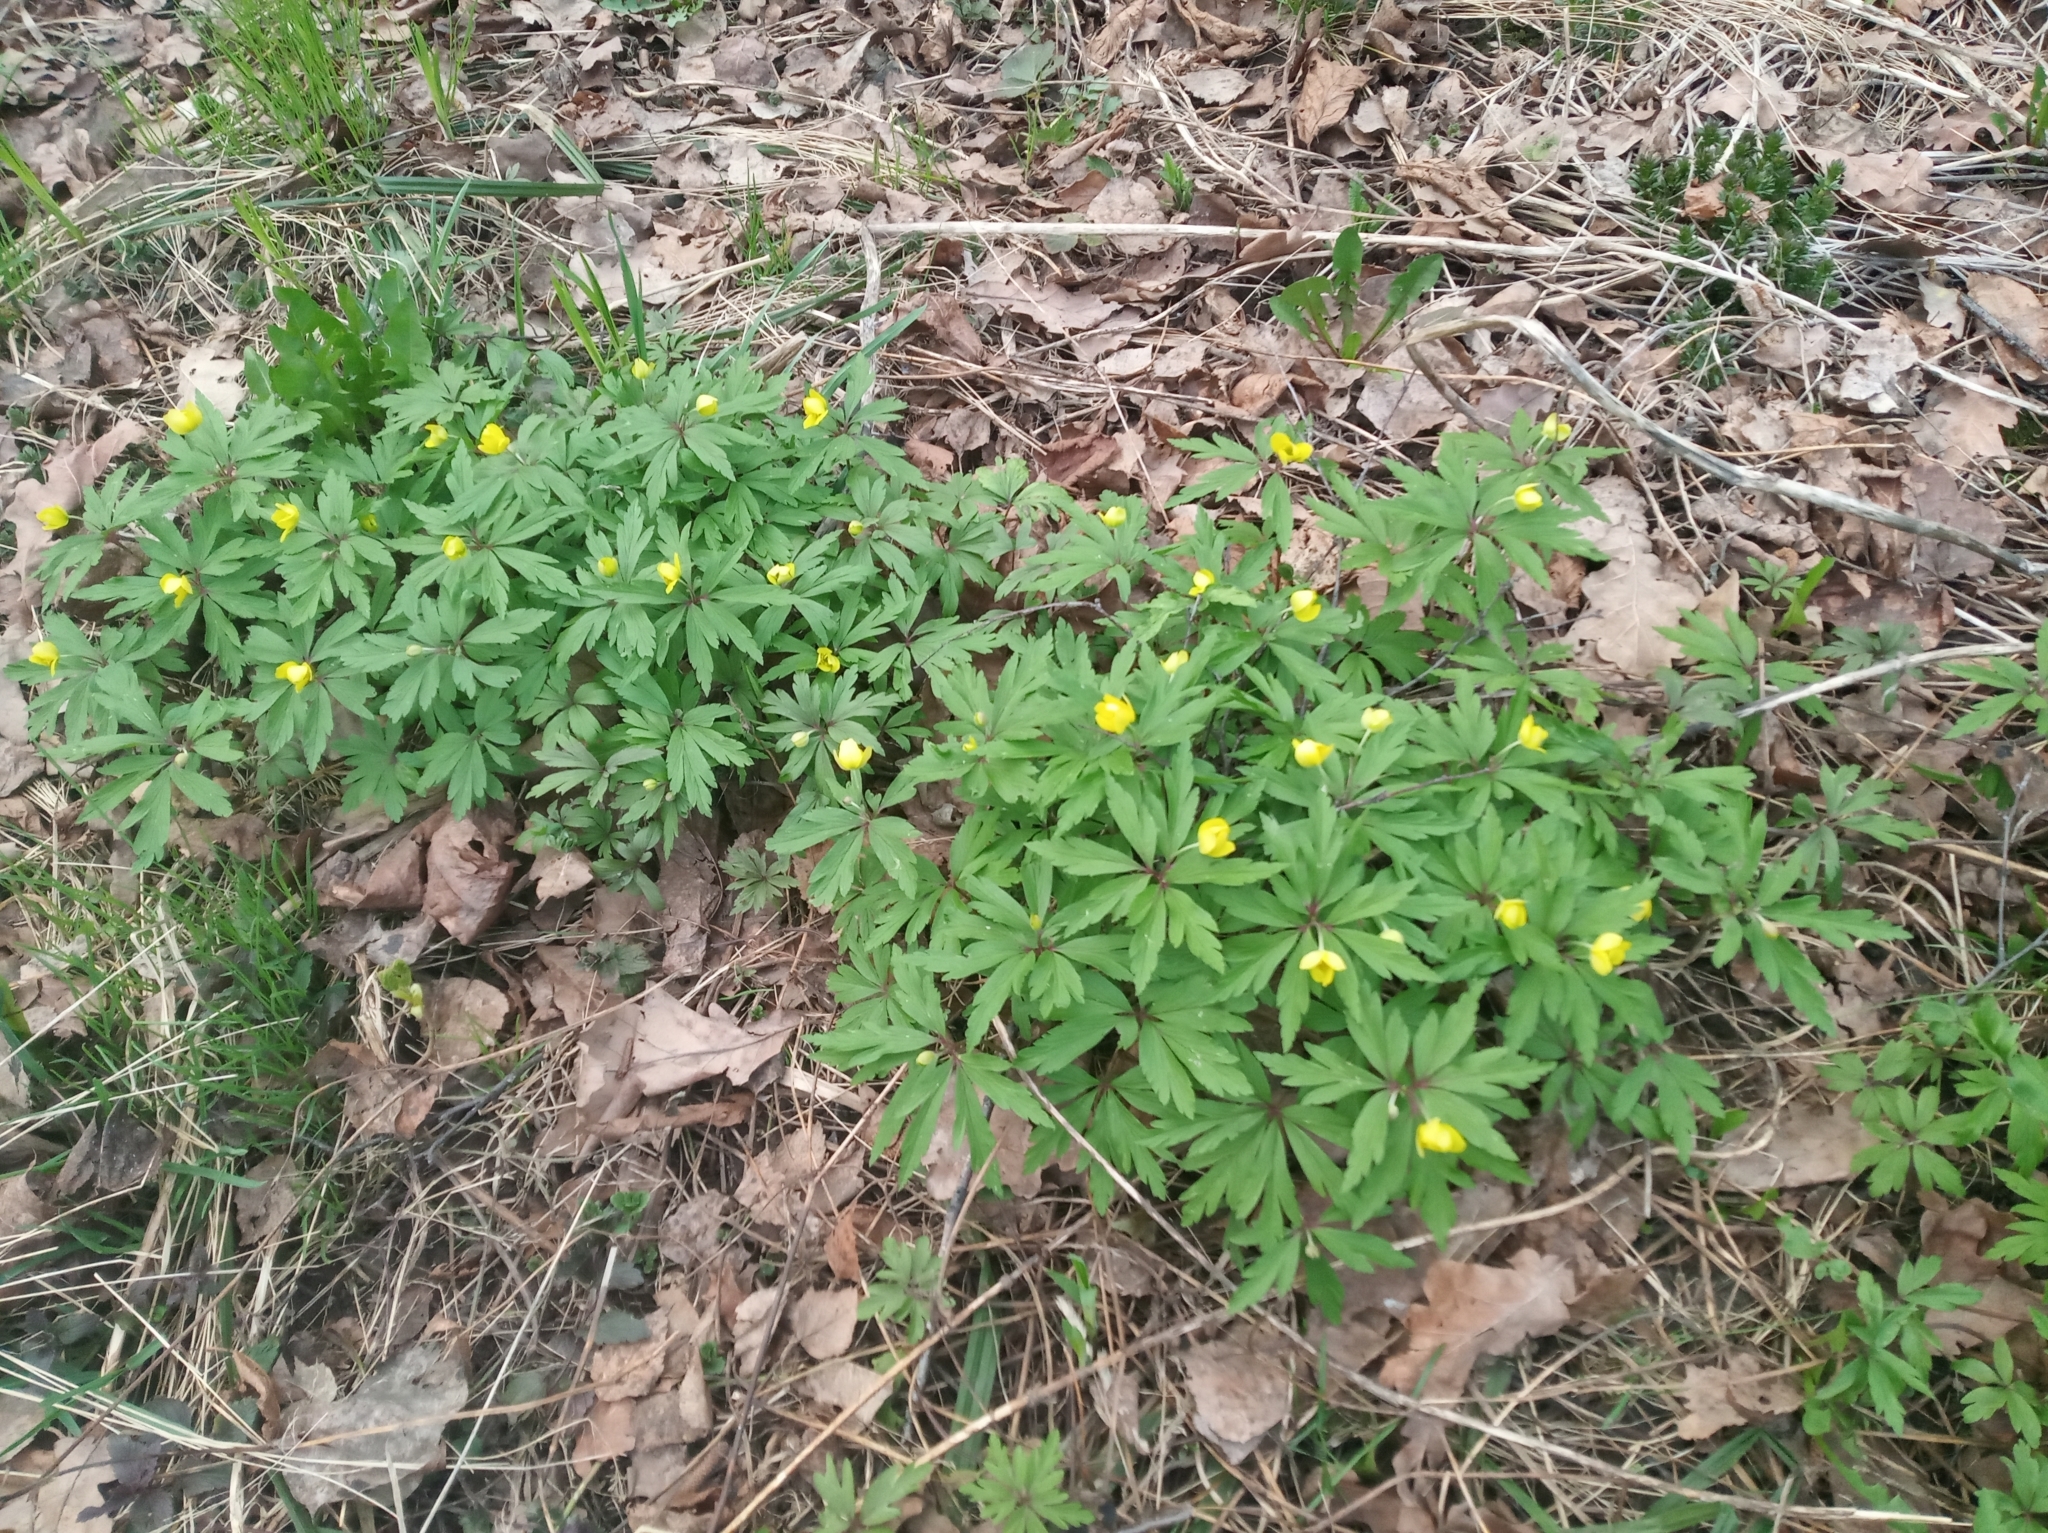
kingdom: Plantae
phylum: Tracheophyta
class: Magnoliopsida
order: Ranunculales
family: Ranunculaceae
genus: Anemone
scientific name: Anemone ranunculoides
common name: Yellow anemone
